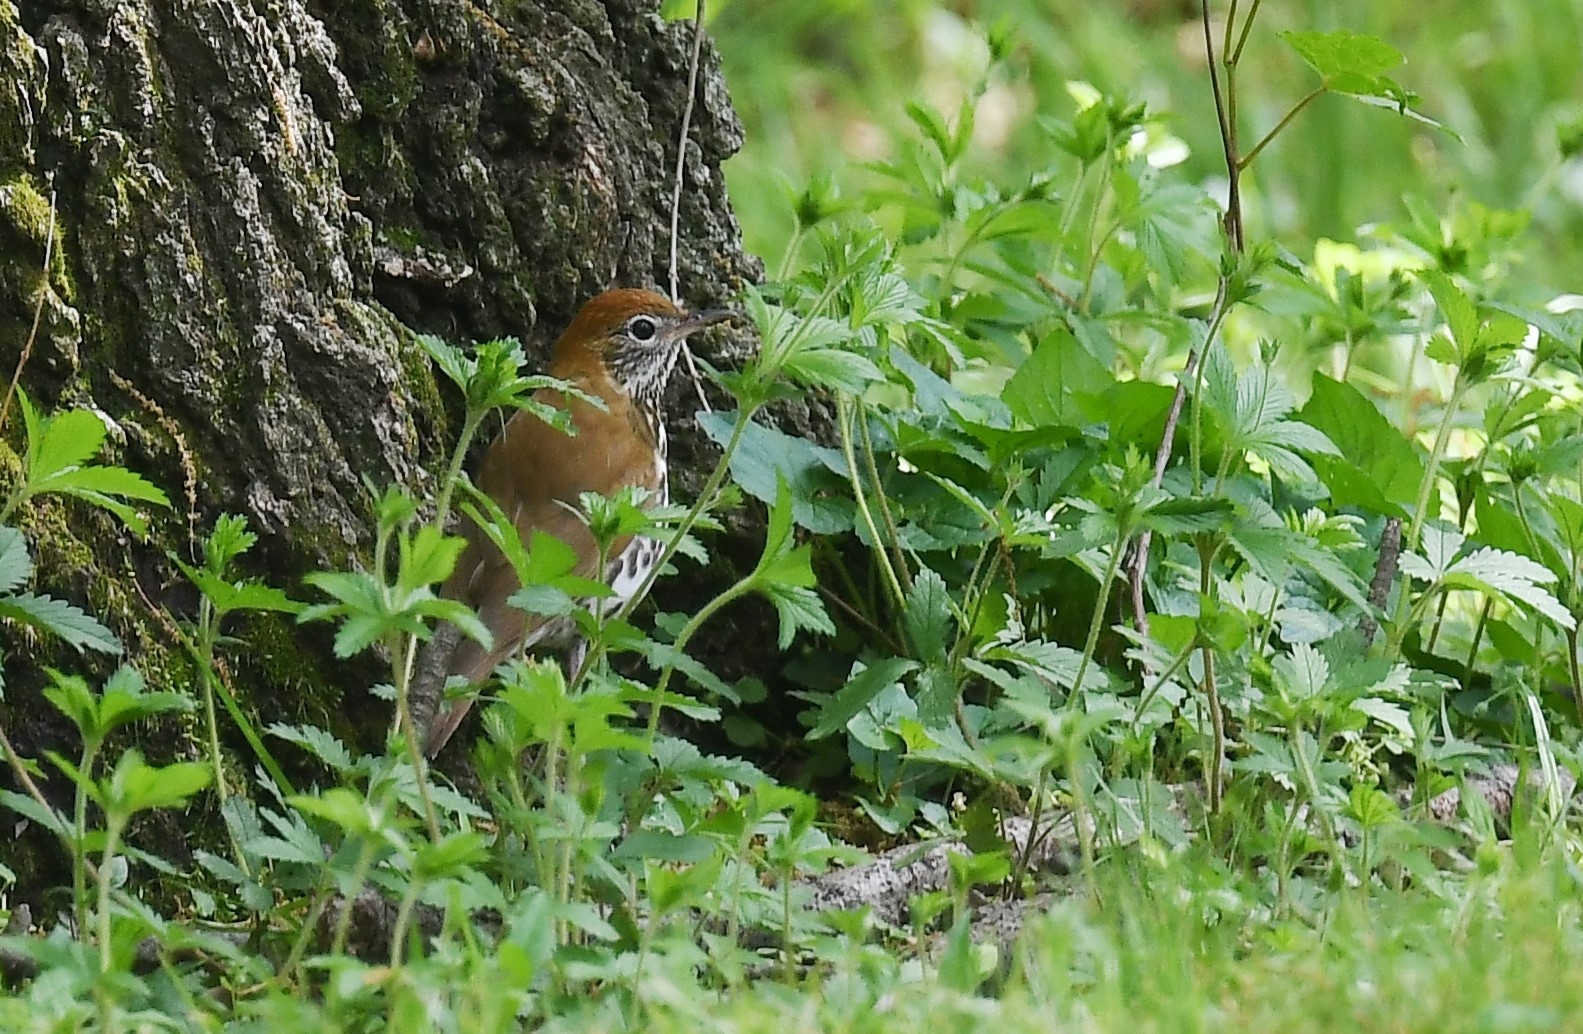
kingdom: Animalia
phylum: Chordata
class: Aves
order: Passeriformes
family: Turdidae
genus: Hylocichla
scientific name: Hylocichla mustelina
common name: Wood thrush
